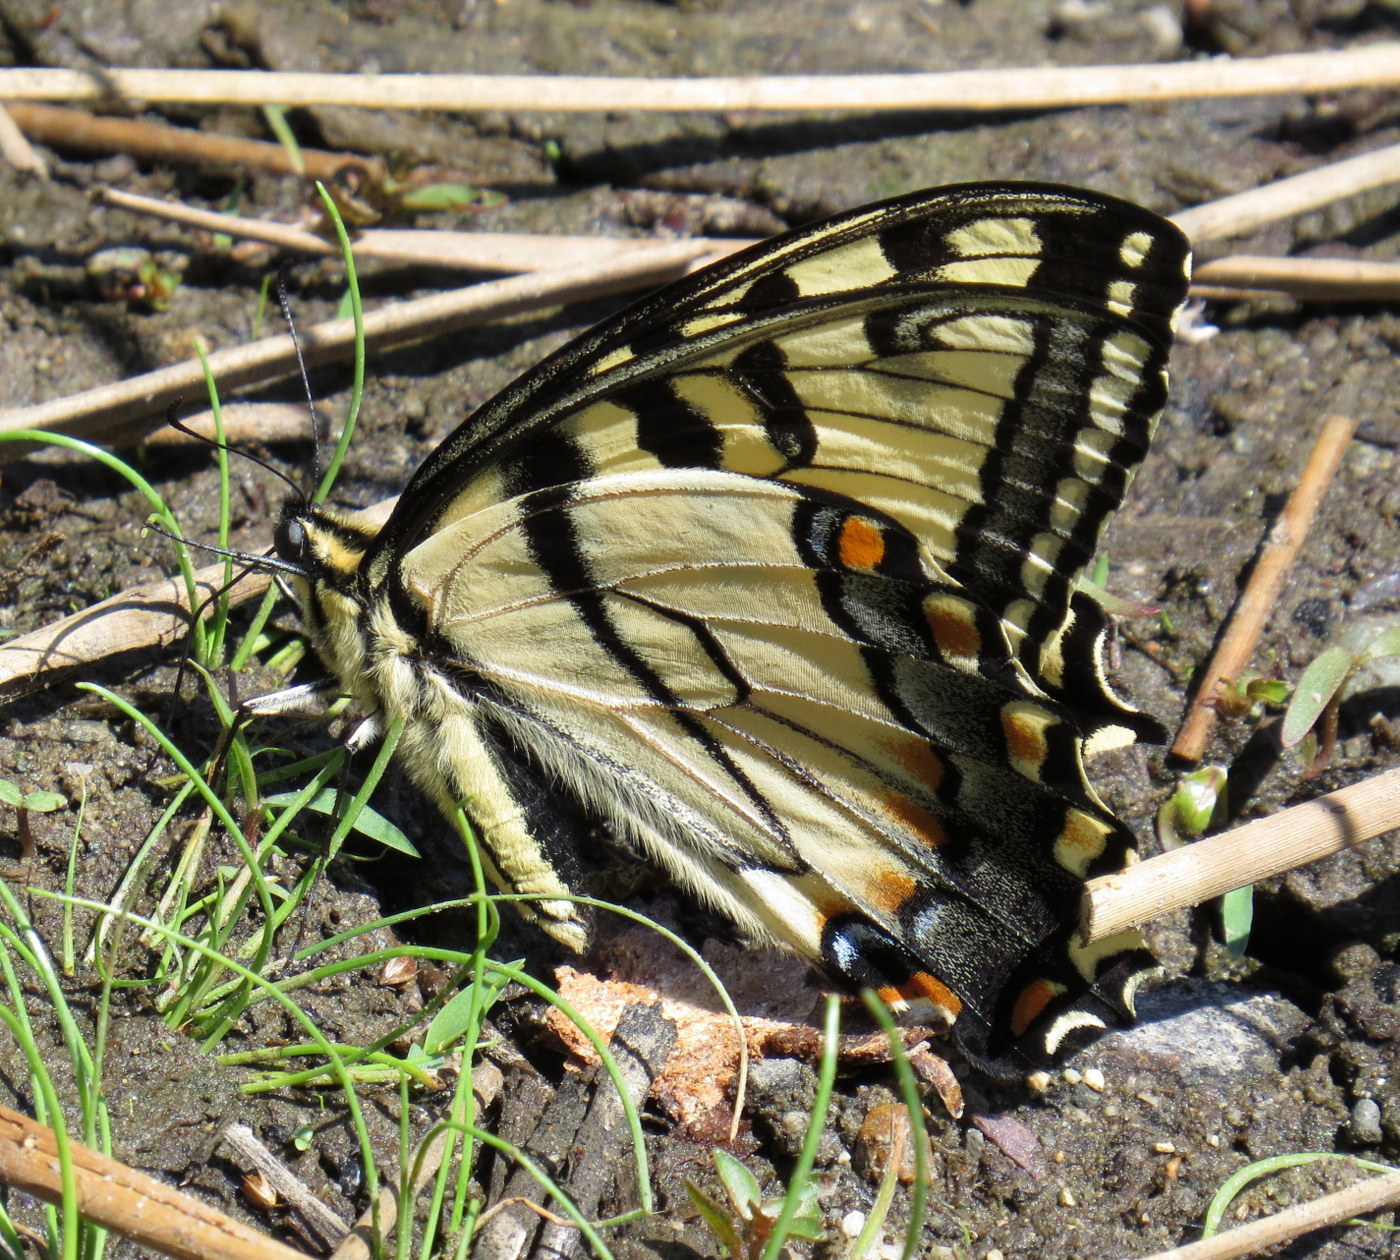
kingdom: Animalia
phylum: Arthropoda
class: Insecta
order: Lepidoptera
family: Papilionidae
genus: Papilio
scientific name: Papilio glaucus
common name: Tiger swallowtail
